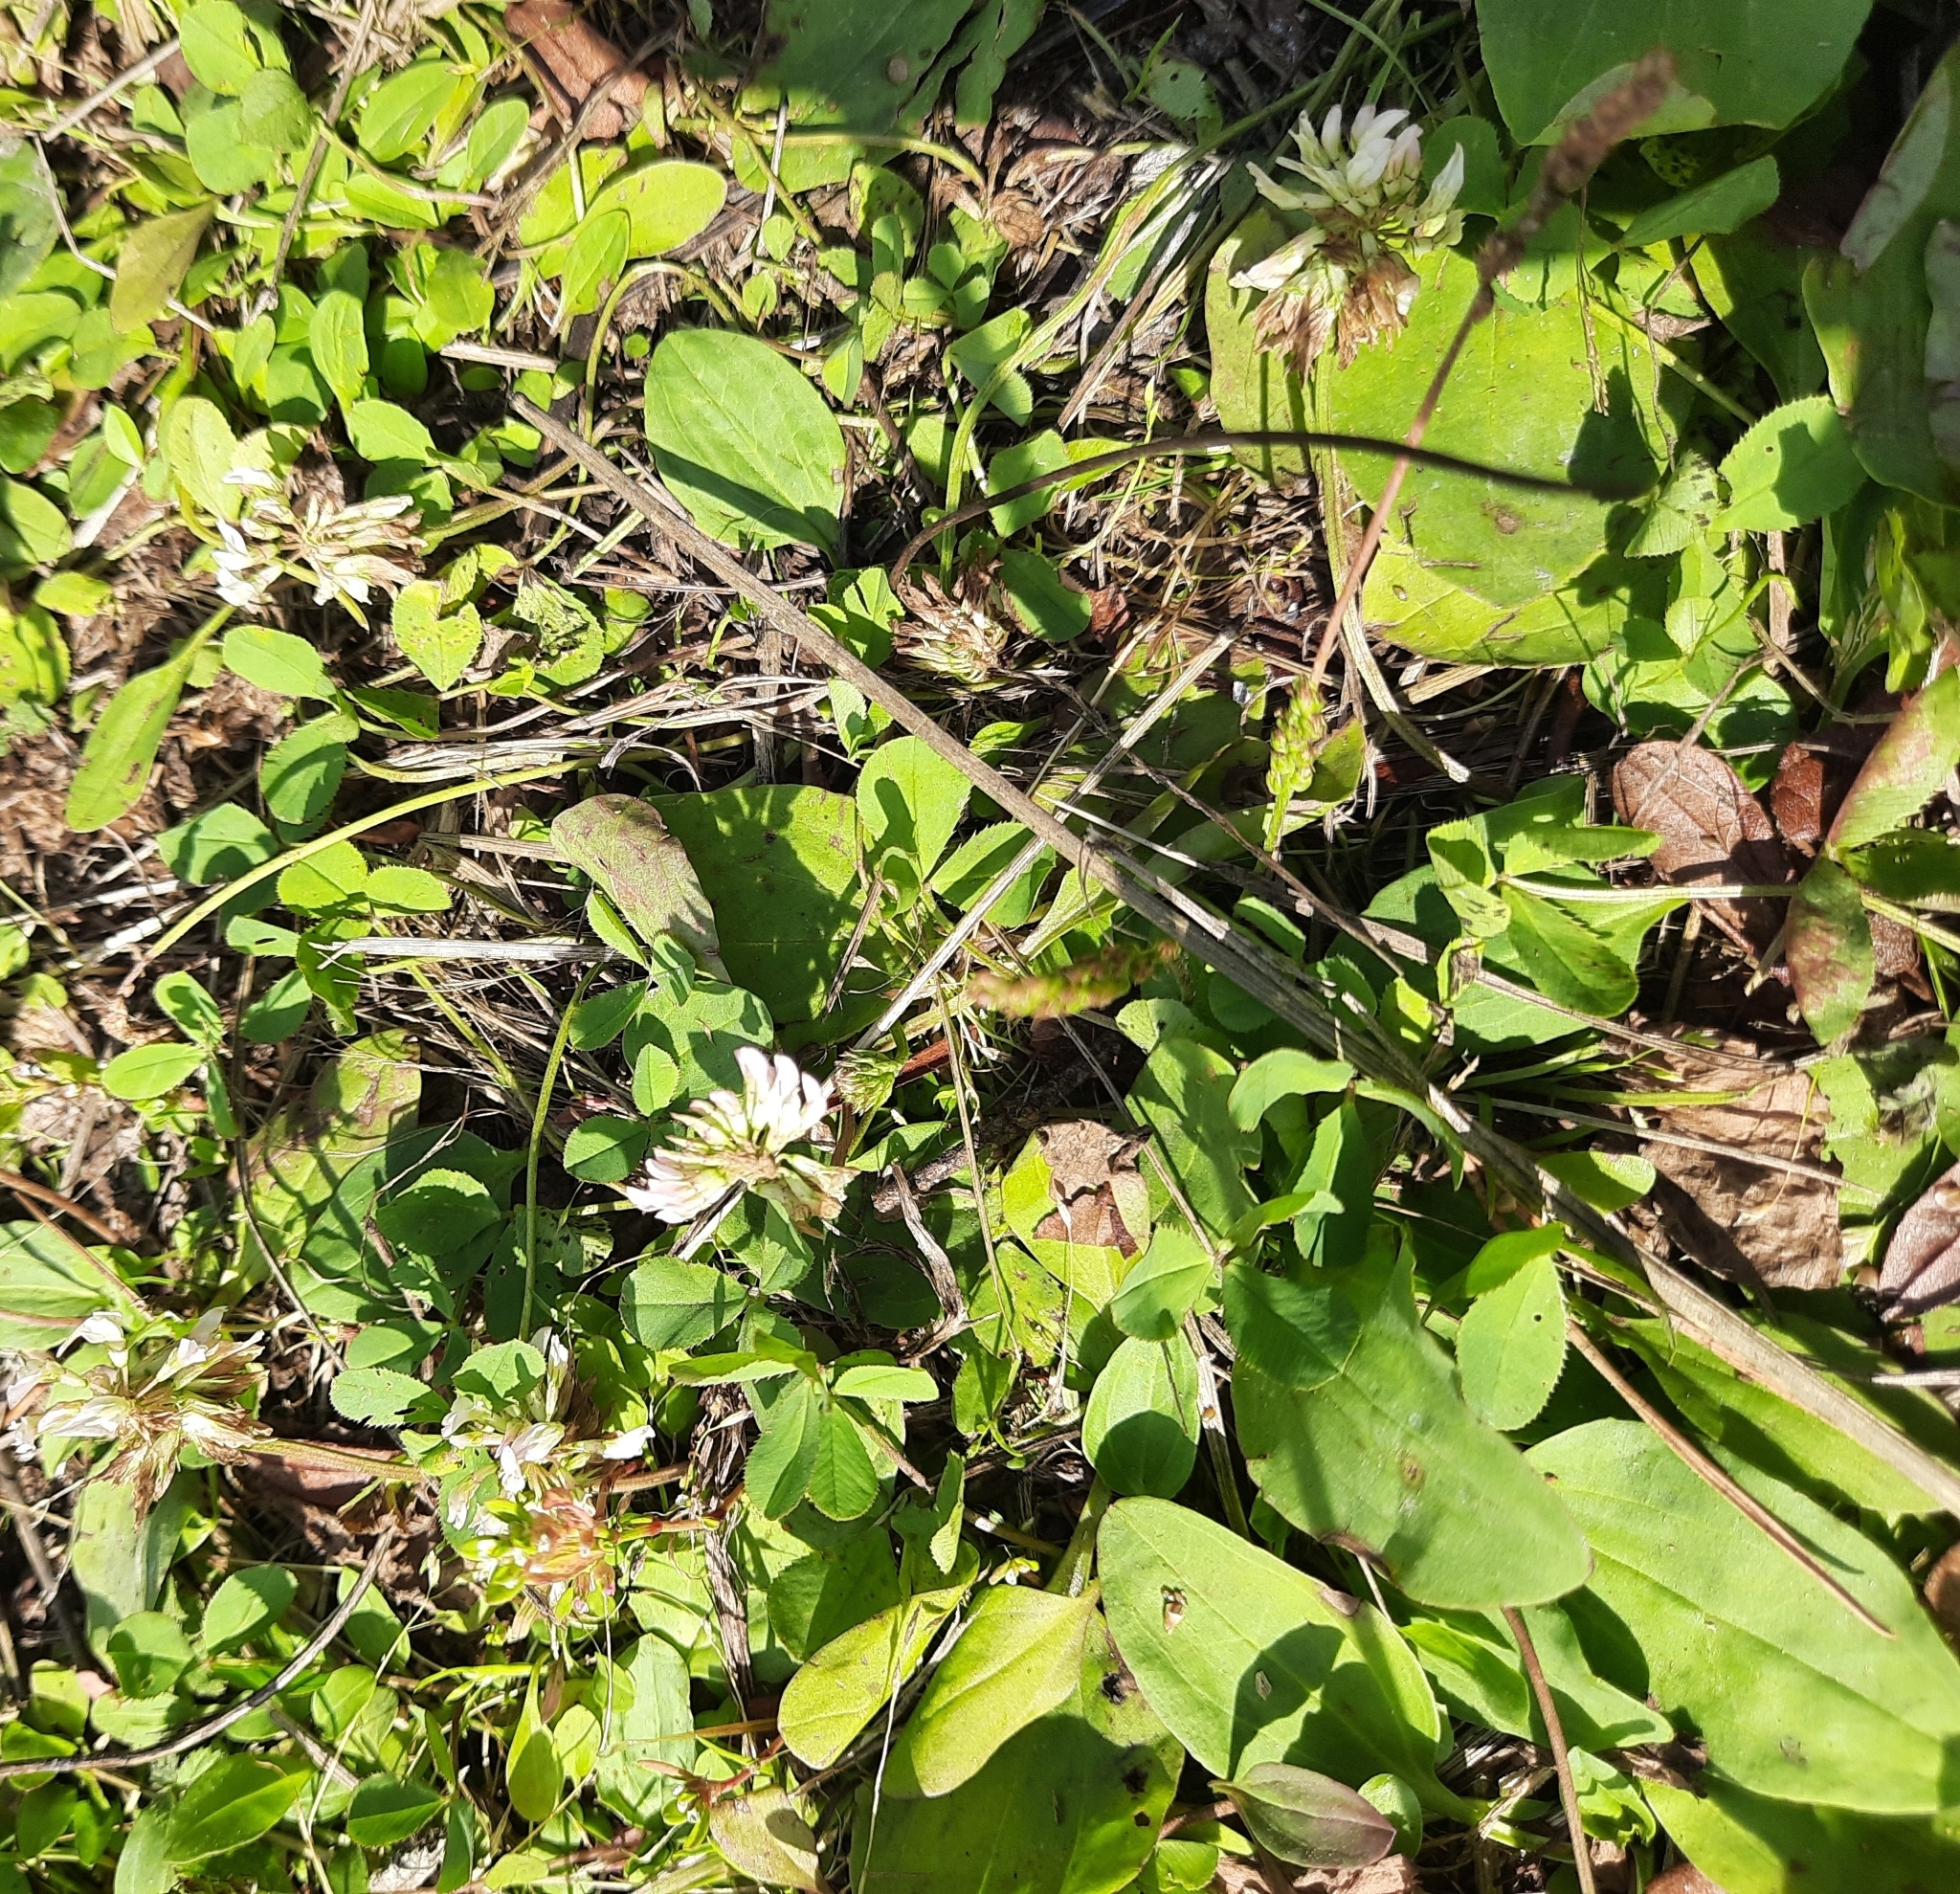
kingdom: Plantae
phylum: Tracheophyta
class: Magnoliopsida
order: Fabales
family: Fabaceae
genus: Trifolium
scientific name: Trifolium repens
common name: White clover
